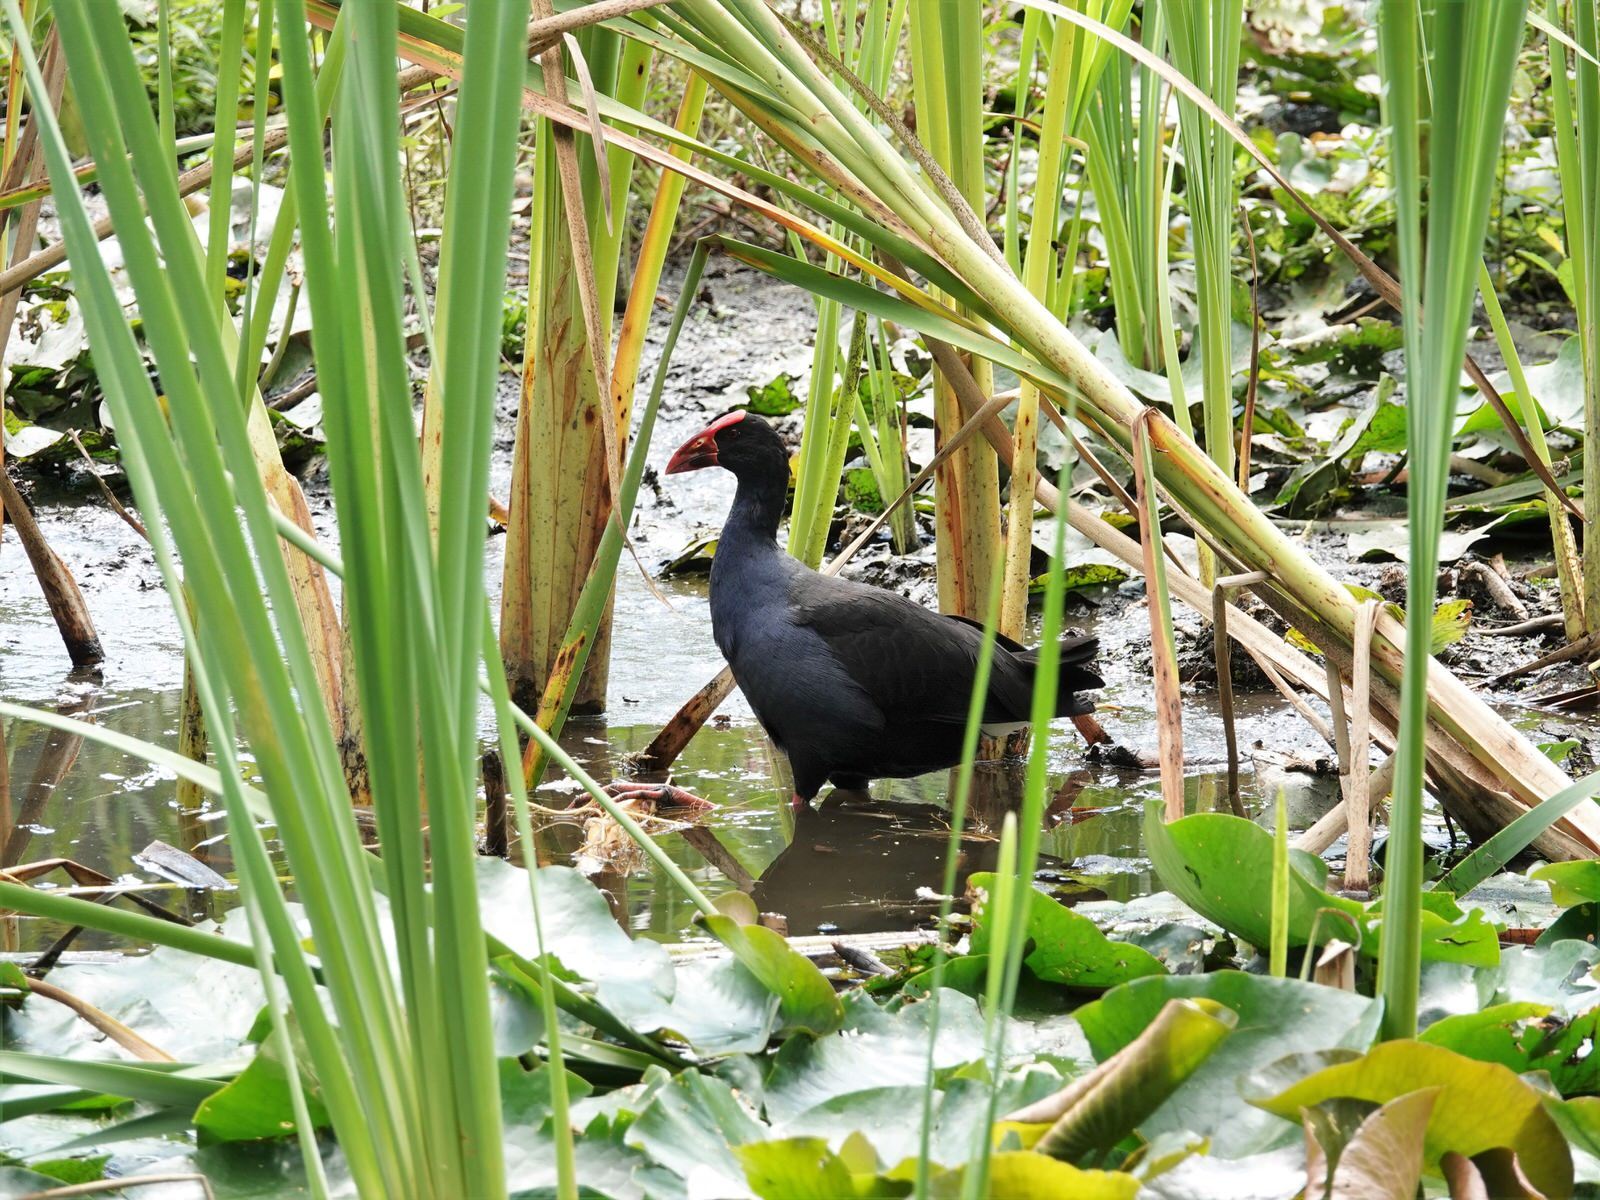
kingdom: Animalia
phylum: Chordata
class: Aves
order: Gruiformes
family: Rallidae
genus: Porphyrio
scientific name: Porphyrio melanotus
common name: Australasian swamphen
